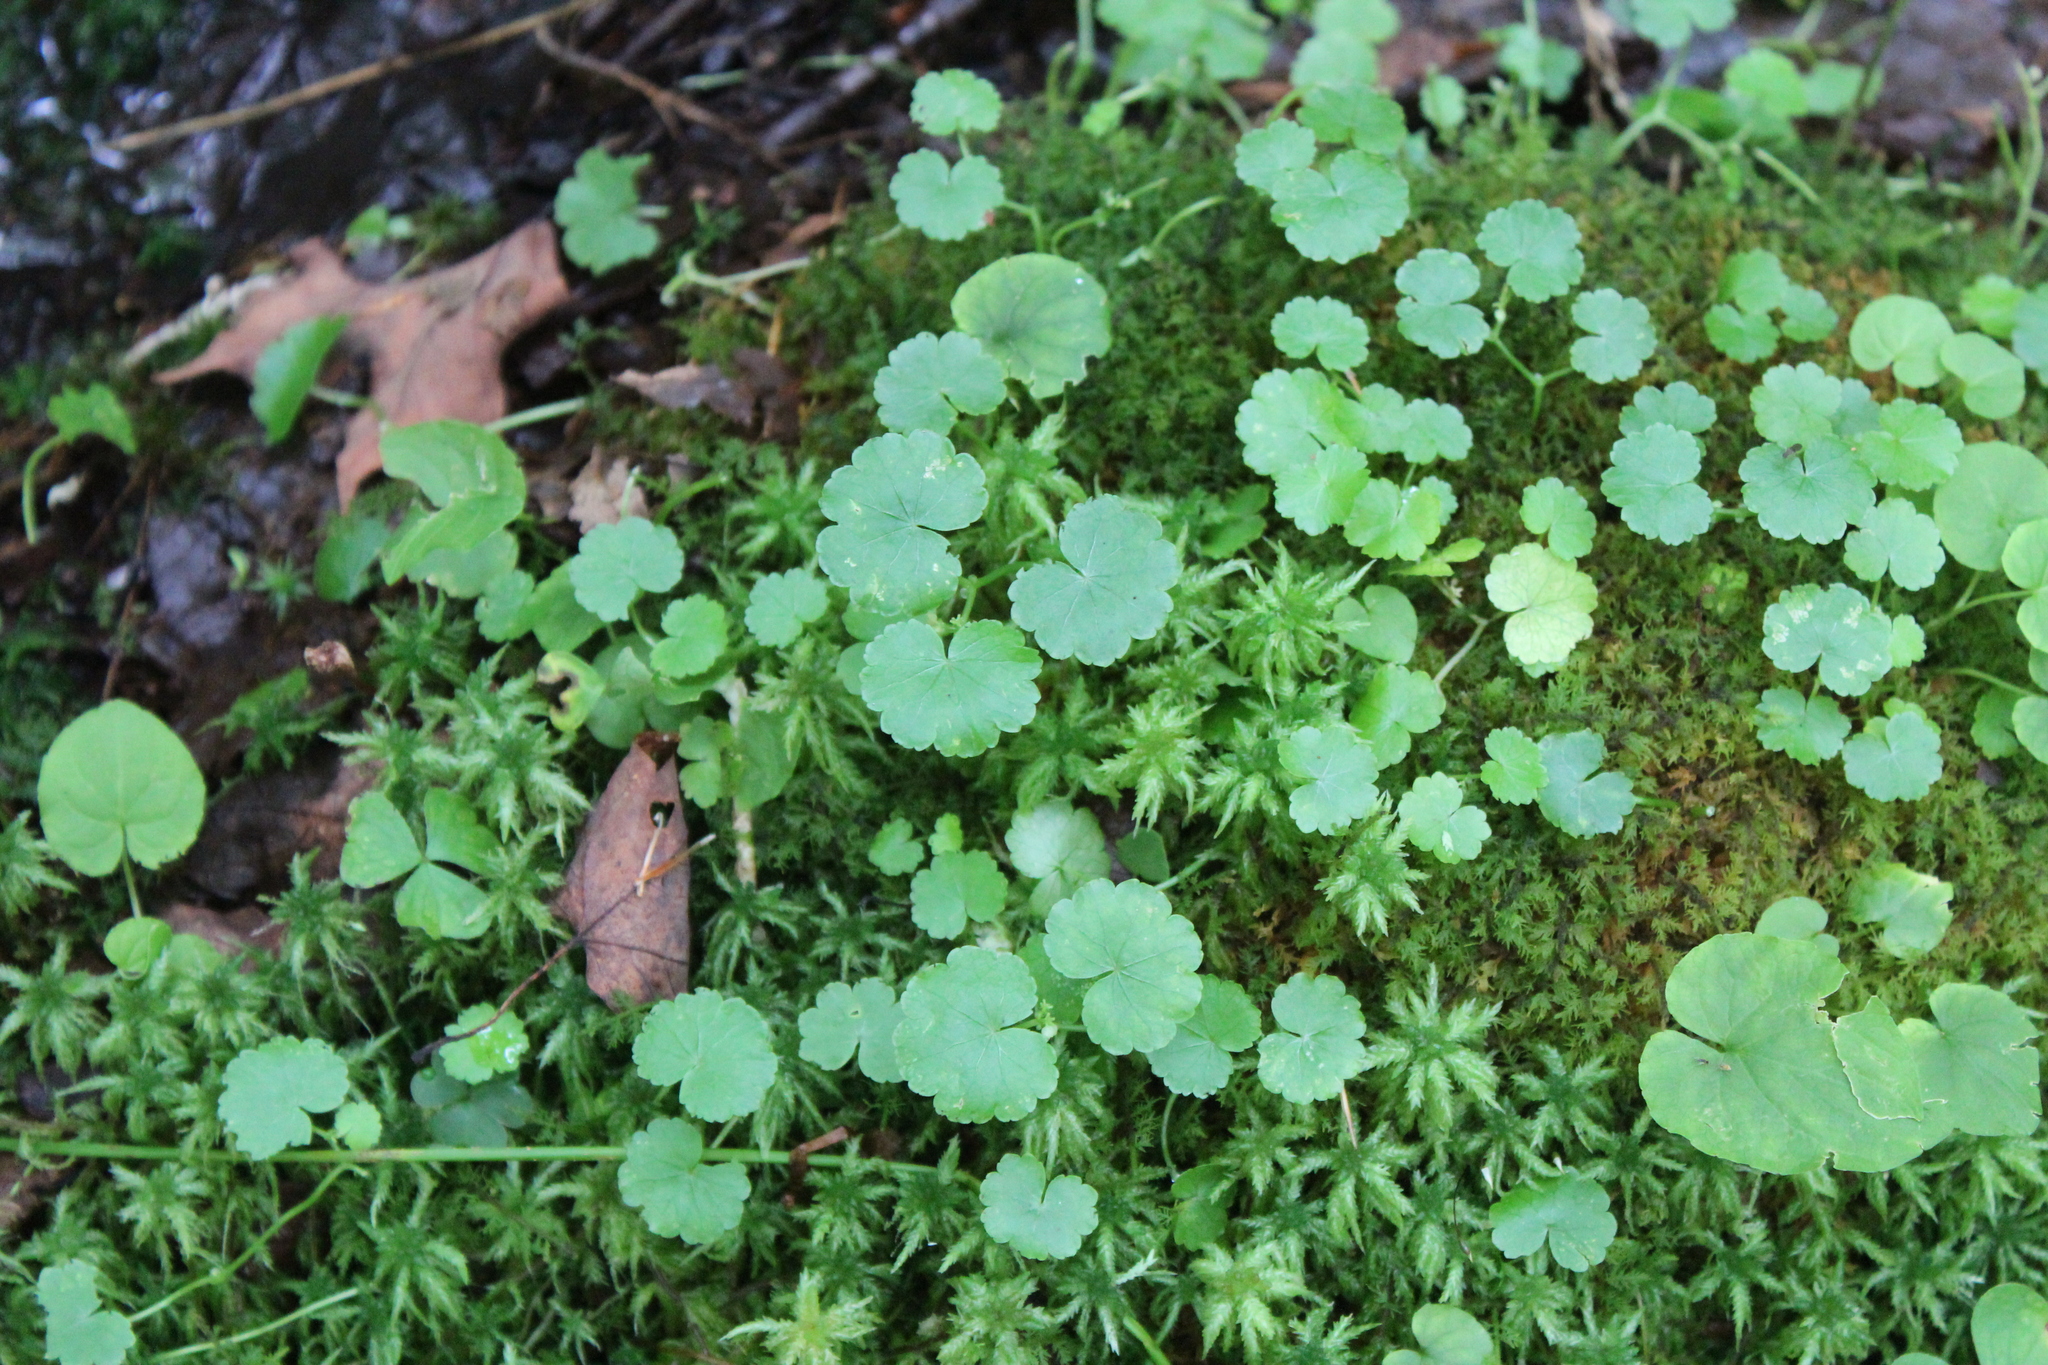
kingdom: Plantae
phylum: Tracheophyta
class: Magnoliopsida
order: Apiales
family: Araliaceae
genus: Hydrocotyle
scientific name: Hydrocotyle americana
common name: American water-pennywort
